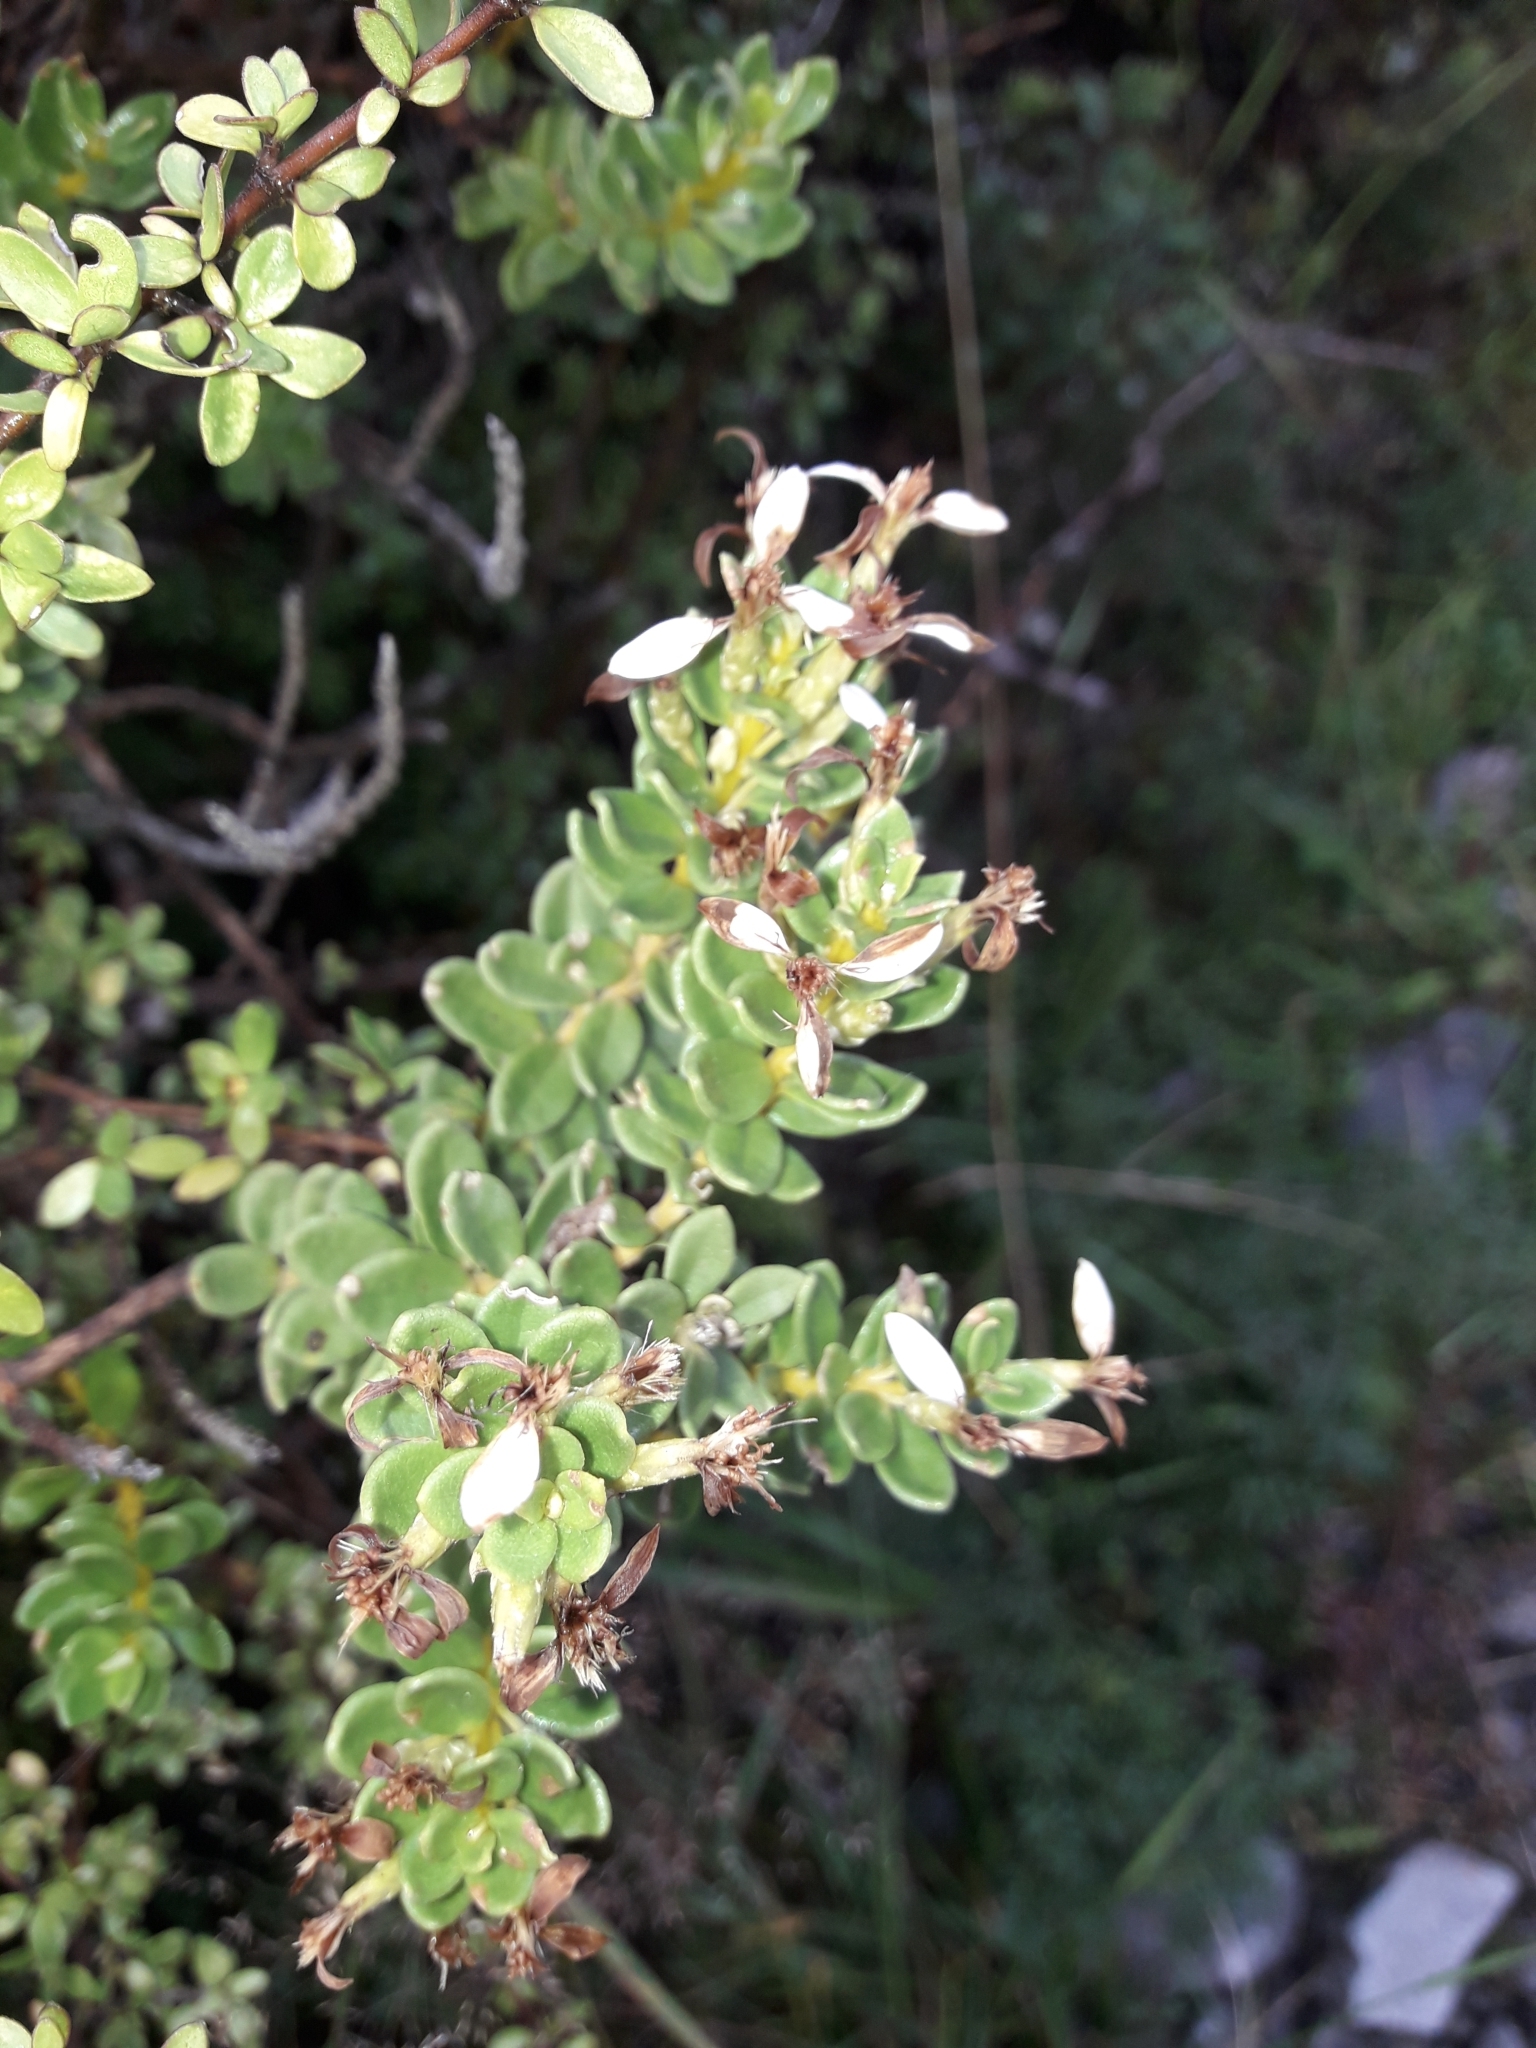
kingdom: Plantae
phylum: Tracheophyta
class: Magnoliopsida
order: Asterales
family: Asteraceae
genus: Olearia
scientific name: Olearia nummularifolia
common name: Sticky daisybush
